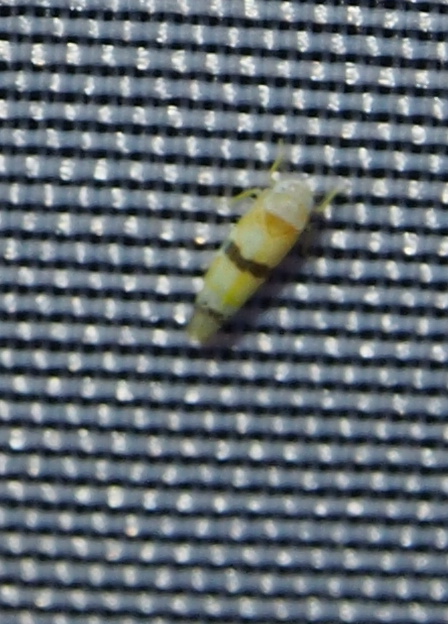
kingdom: Animalia
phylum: Arthropoda
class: Insecta
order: Hemiptera
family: Cicadellidae
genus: Empoa
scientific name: Empoa gillettei
